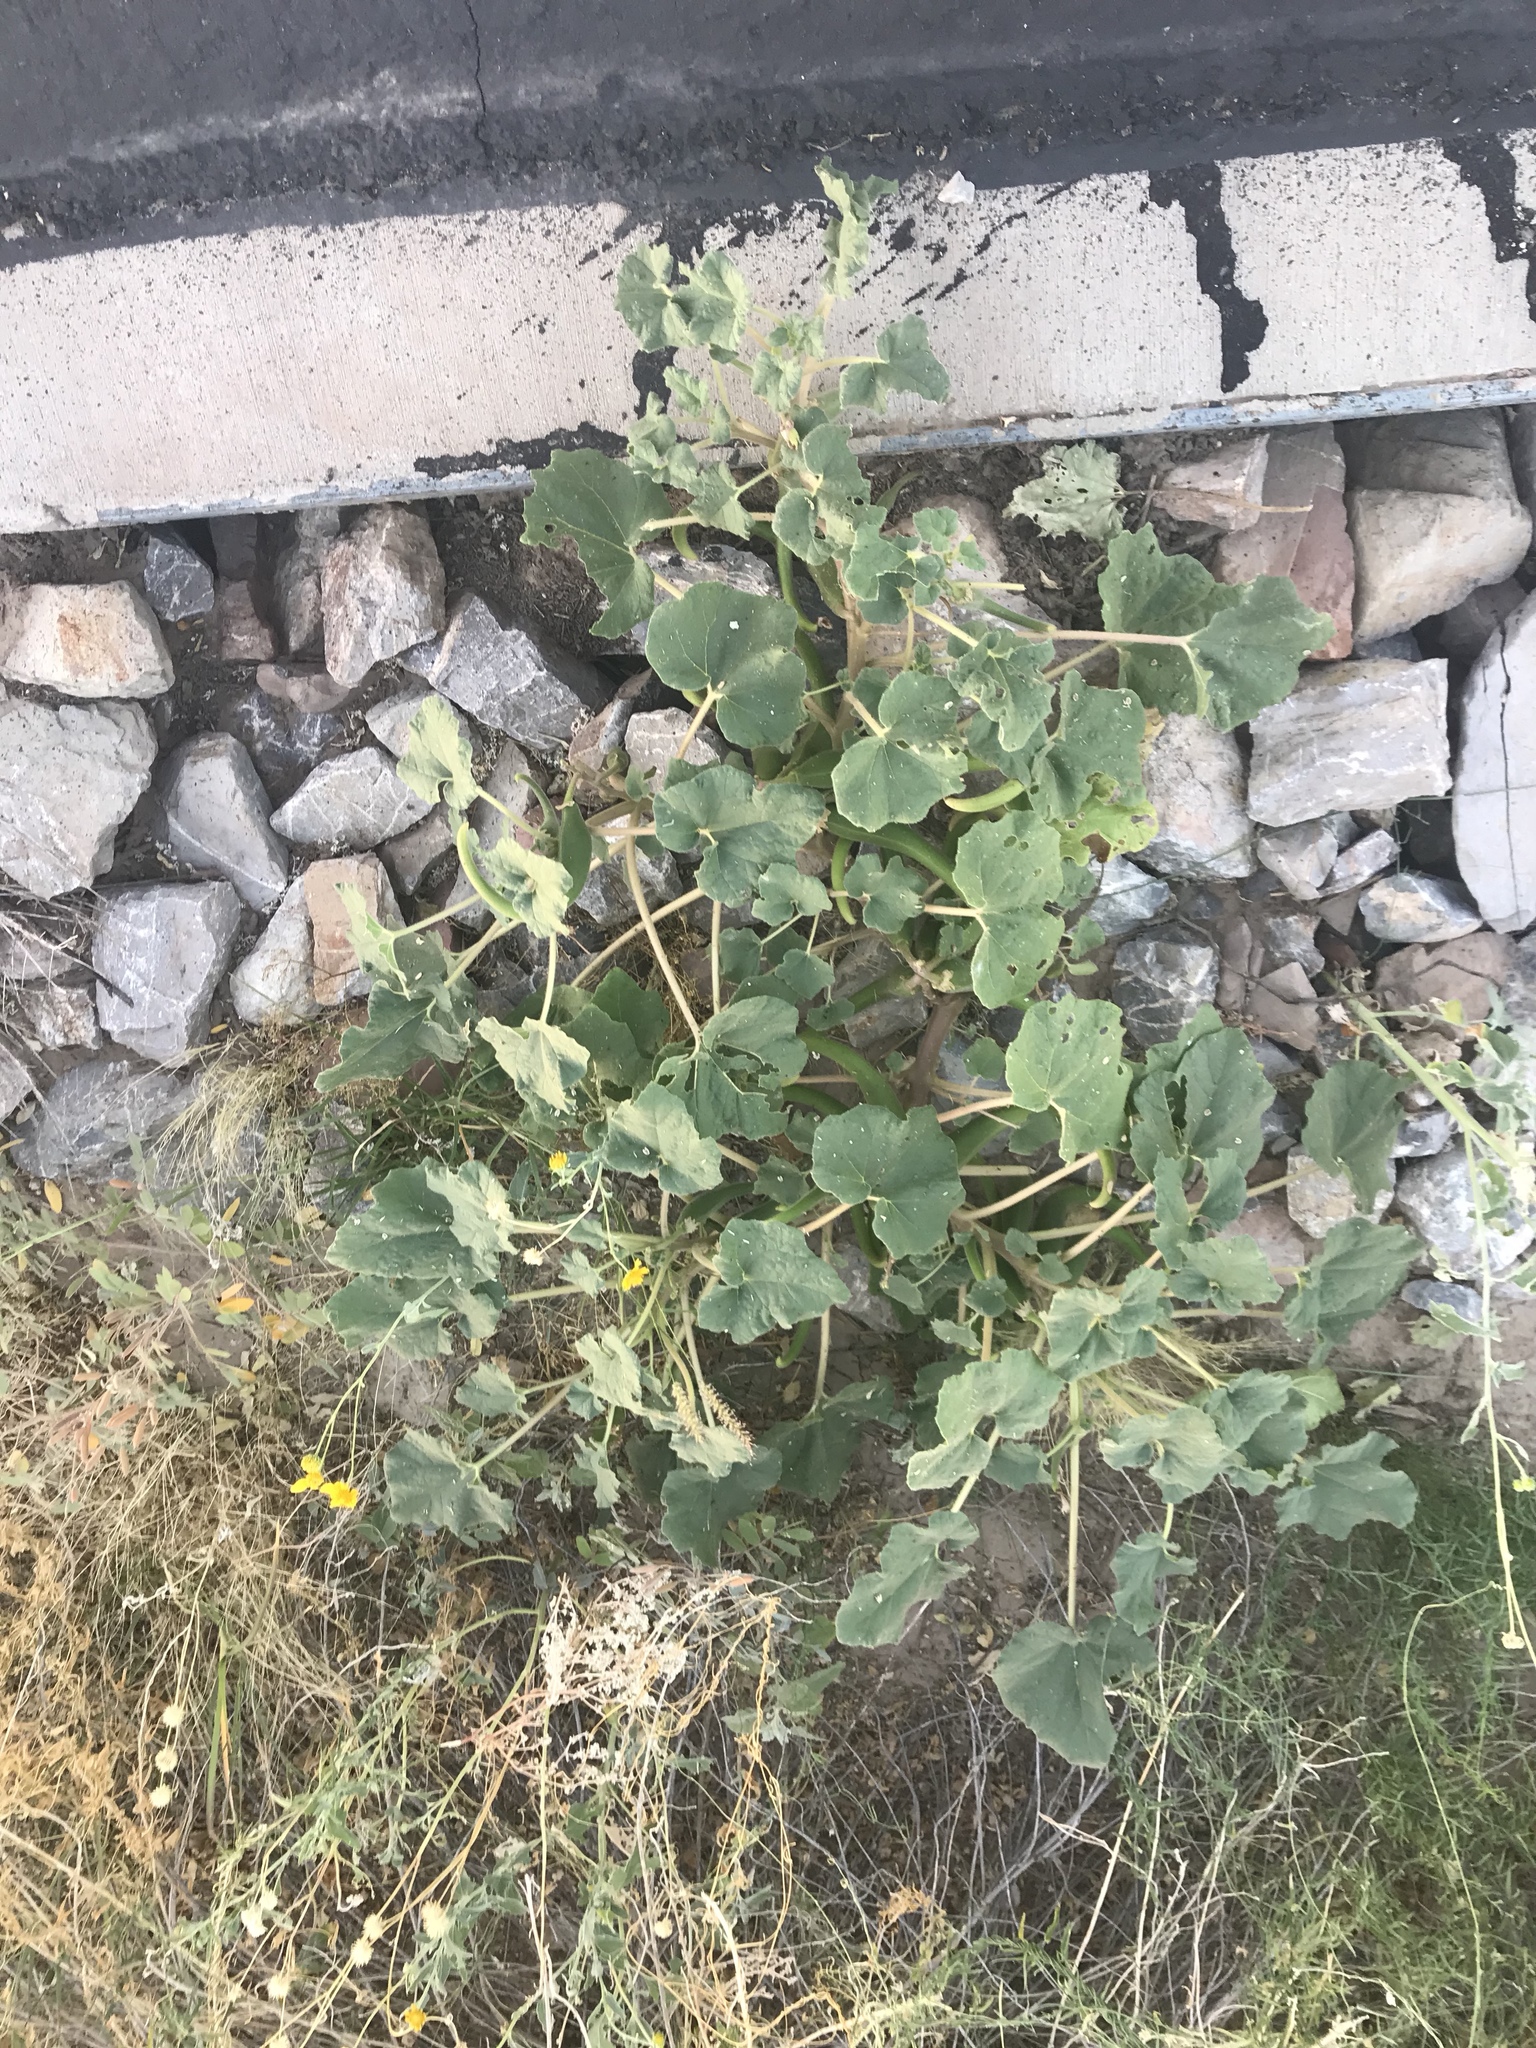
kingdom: Plantae
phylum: Tracheophyta
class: Magnoliopsida
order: Lamiales
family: Martyniaceae
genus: Proboscidea
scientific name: Proboscidea parviflora
